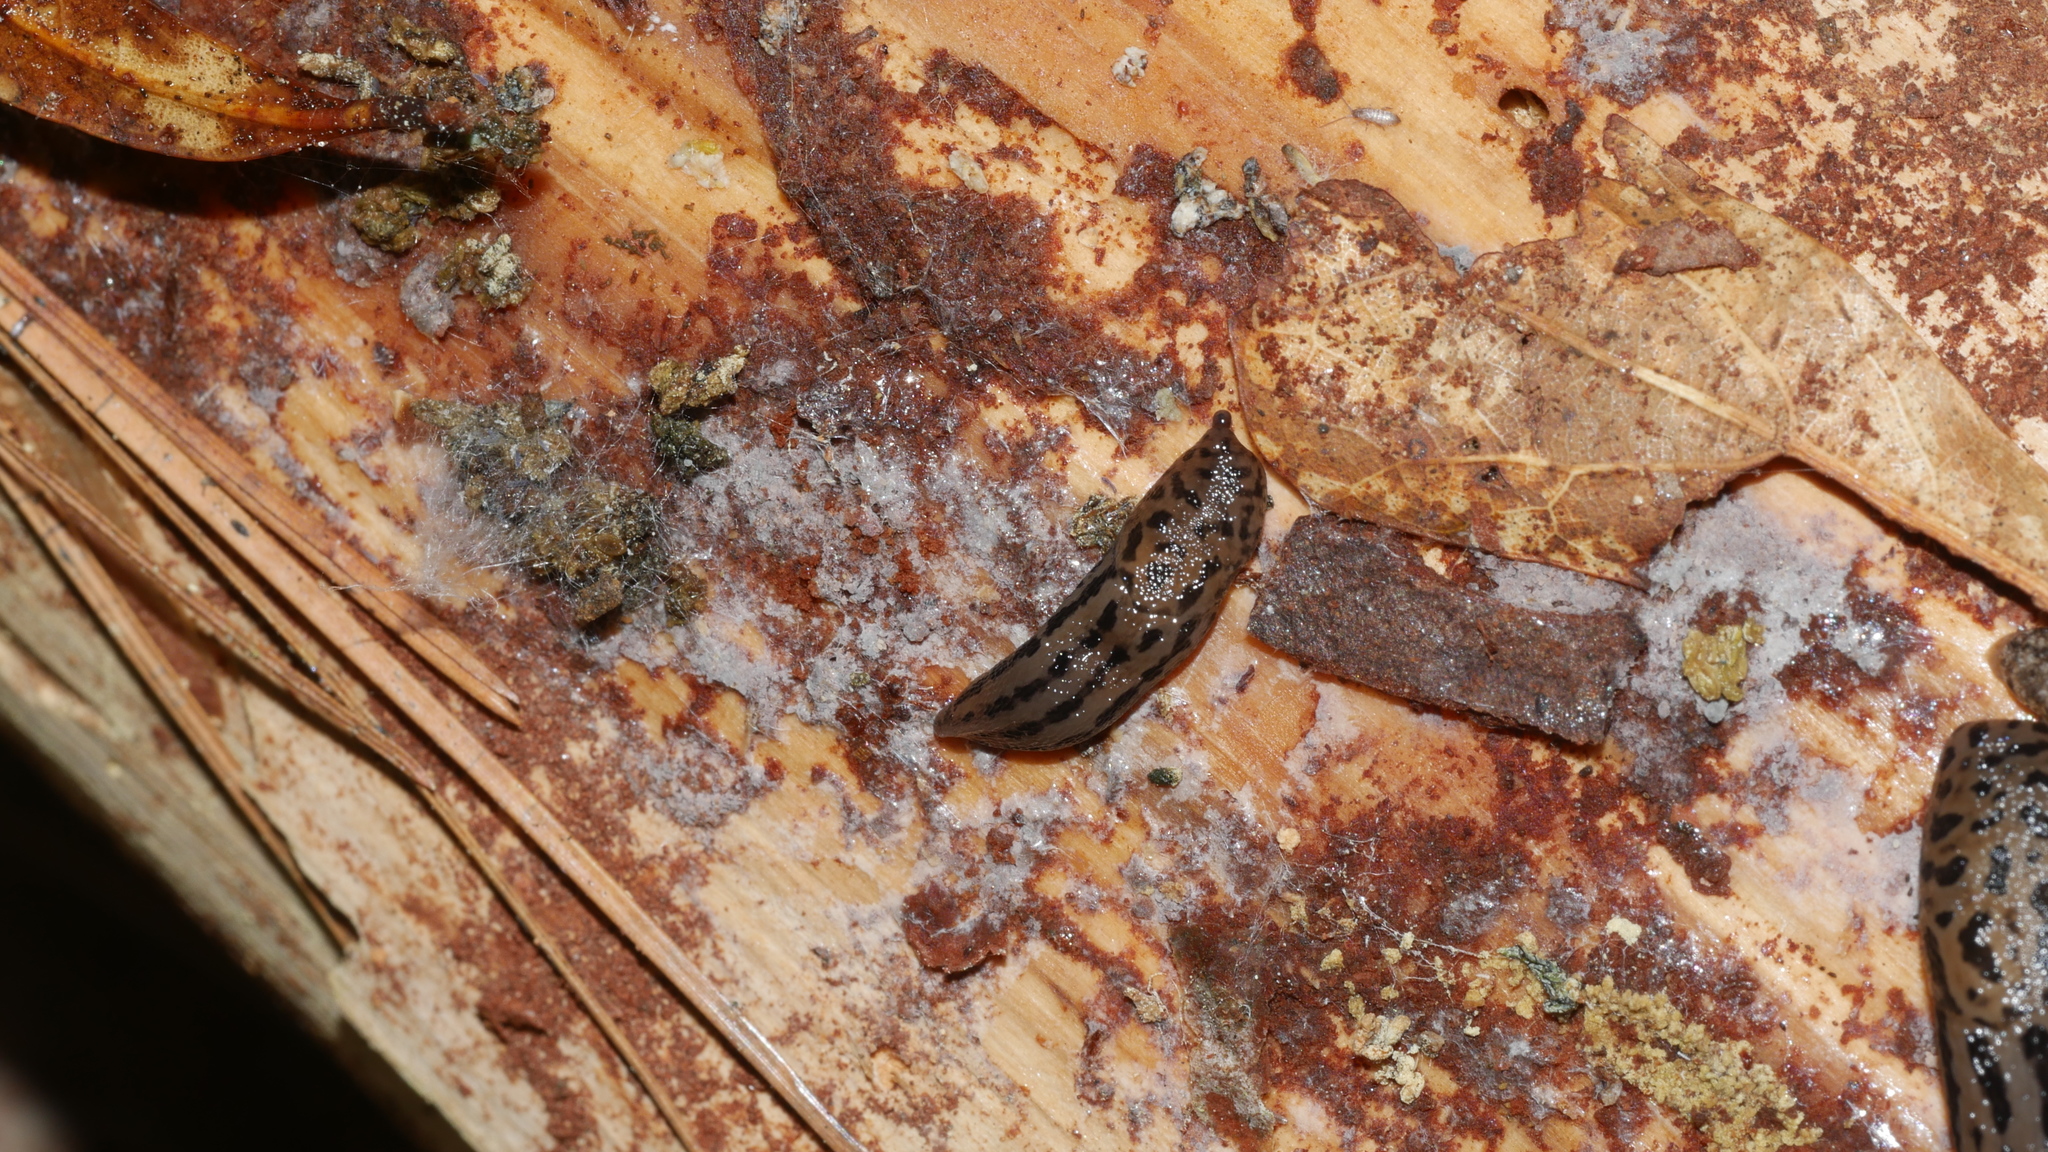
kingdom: Animalia
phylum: Mollusca
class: Gastropoda
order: Stylommatophora
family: Limacidae
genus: Limax
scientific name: Limax maximus
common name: Great grey slug
